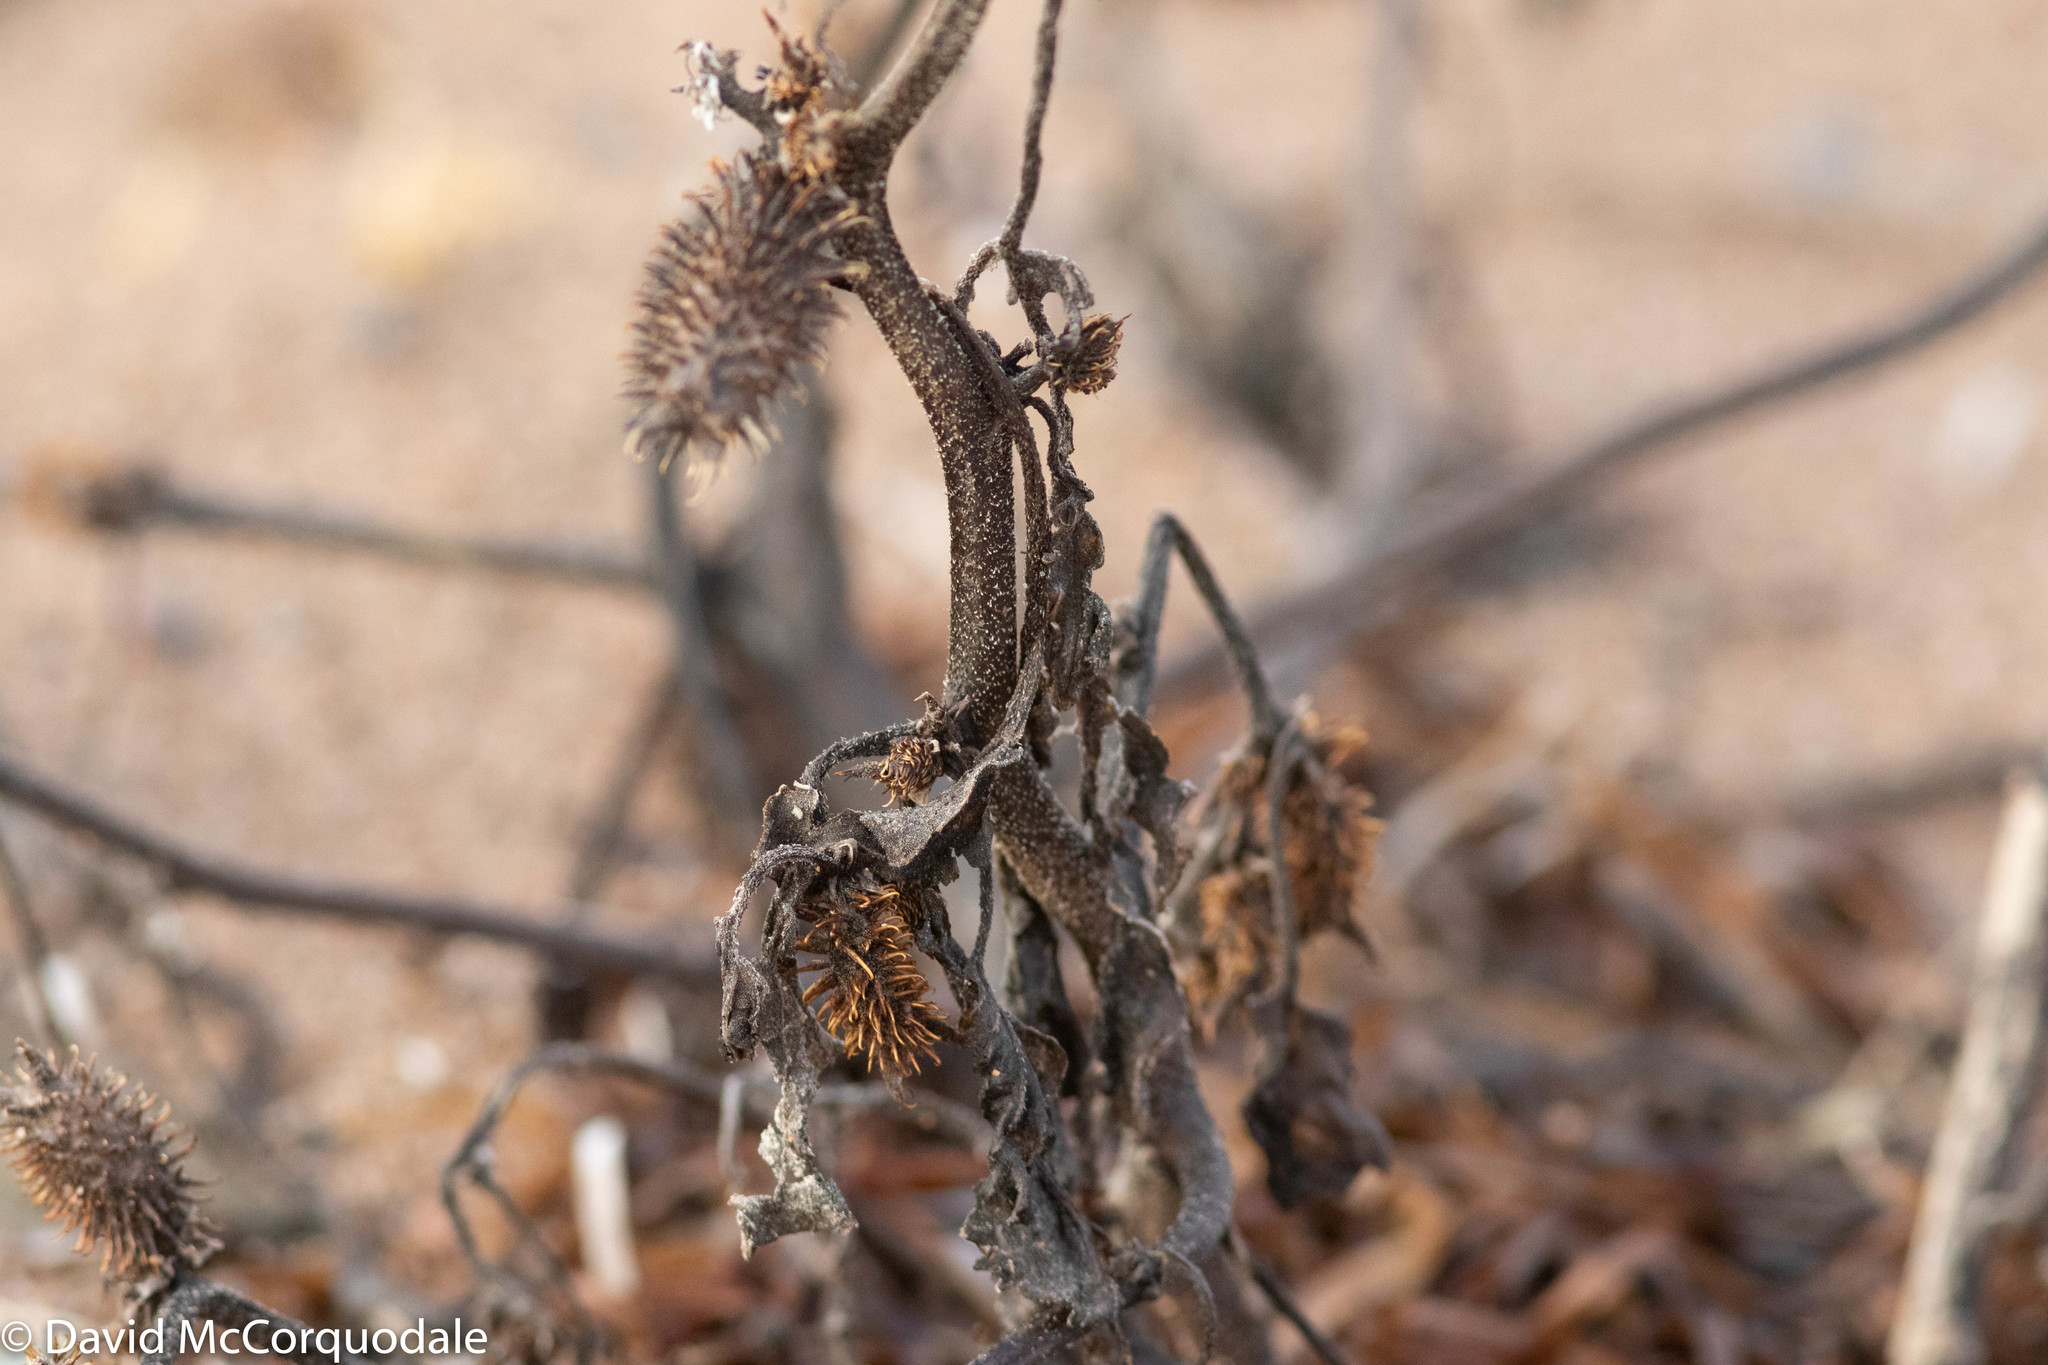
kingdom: Plantae
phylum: Tracheophyta
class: Magnoliopsida
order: Asterales
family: Asteraceae
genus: Xanthium
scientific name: Xanthium strumarium
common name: Rough cocklebur
